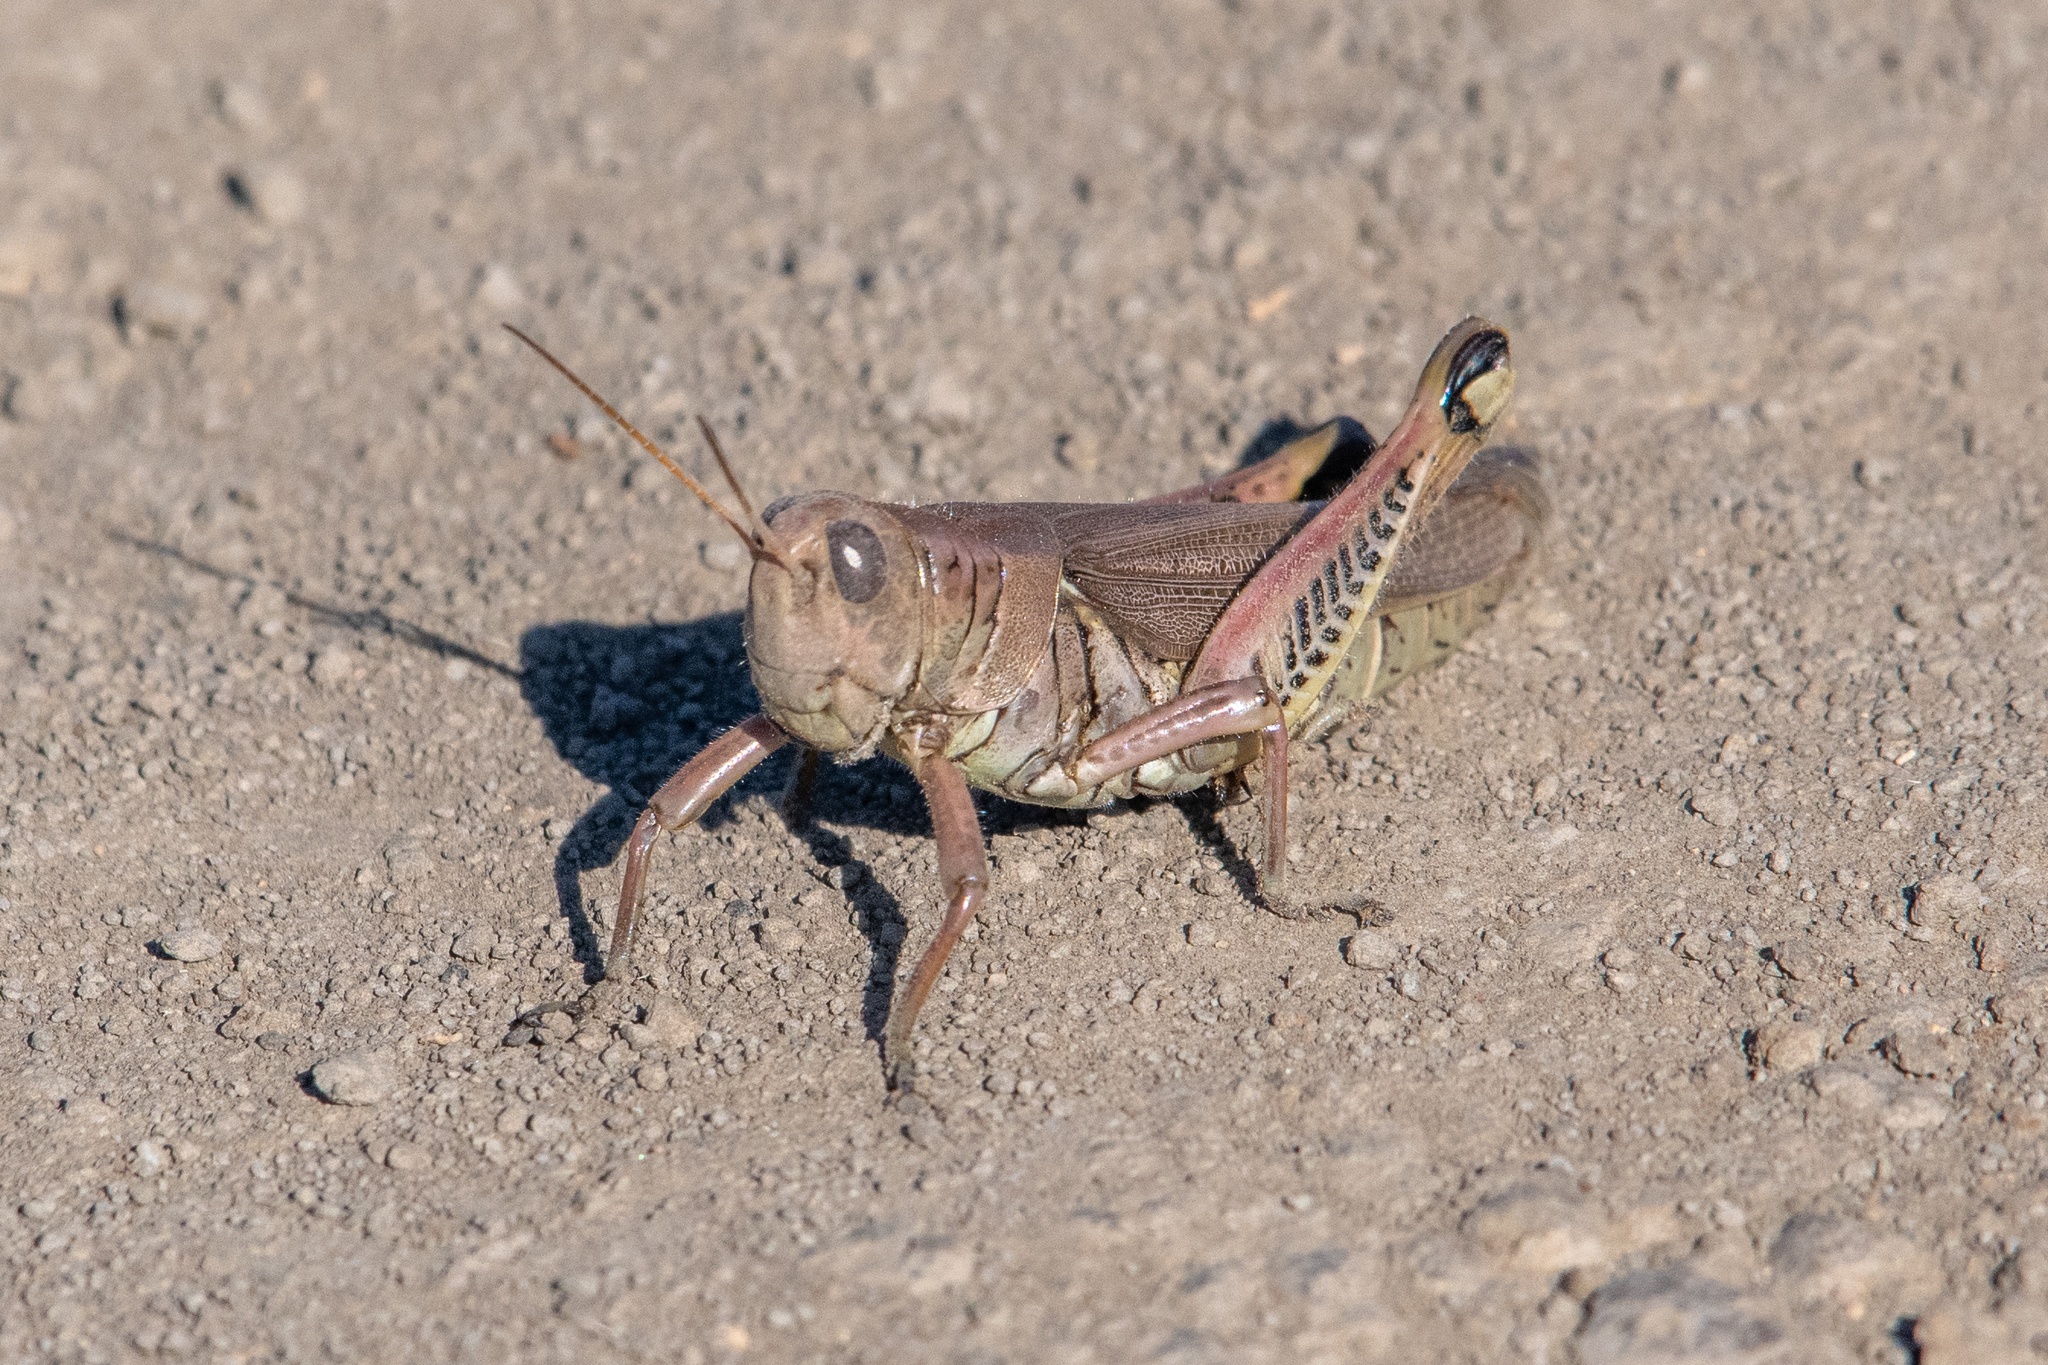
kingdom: Animalia
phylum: Arthropoda
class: Insecta
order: Orthoptera
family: Acrididae
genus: Melanoplus
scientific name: Melanoplus differentialis
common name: Differential grasshopper
